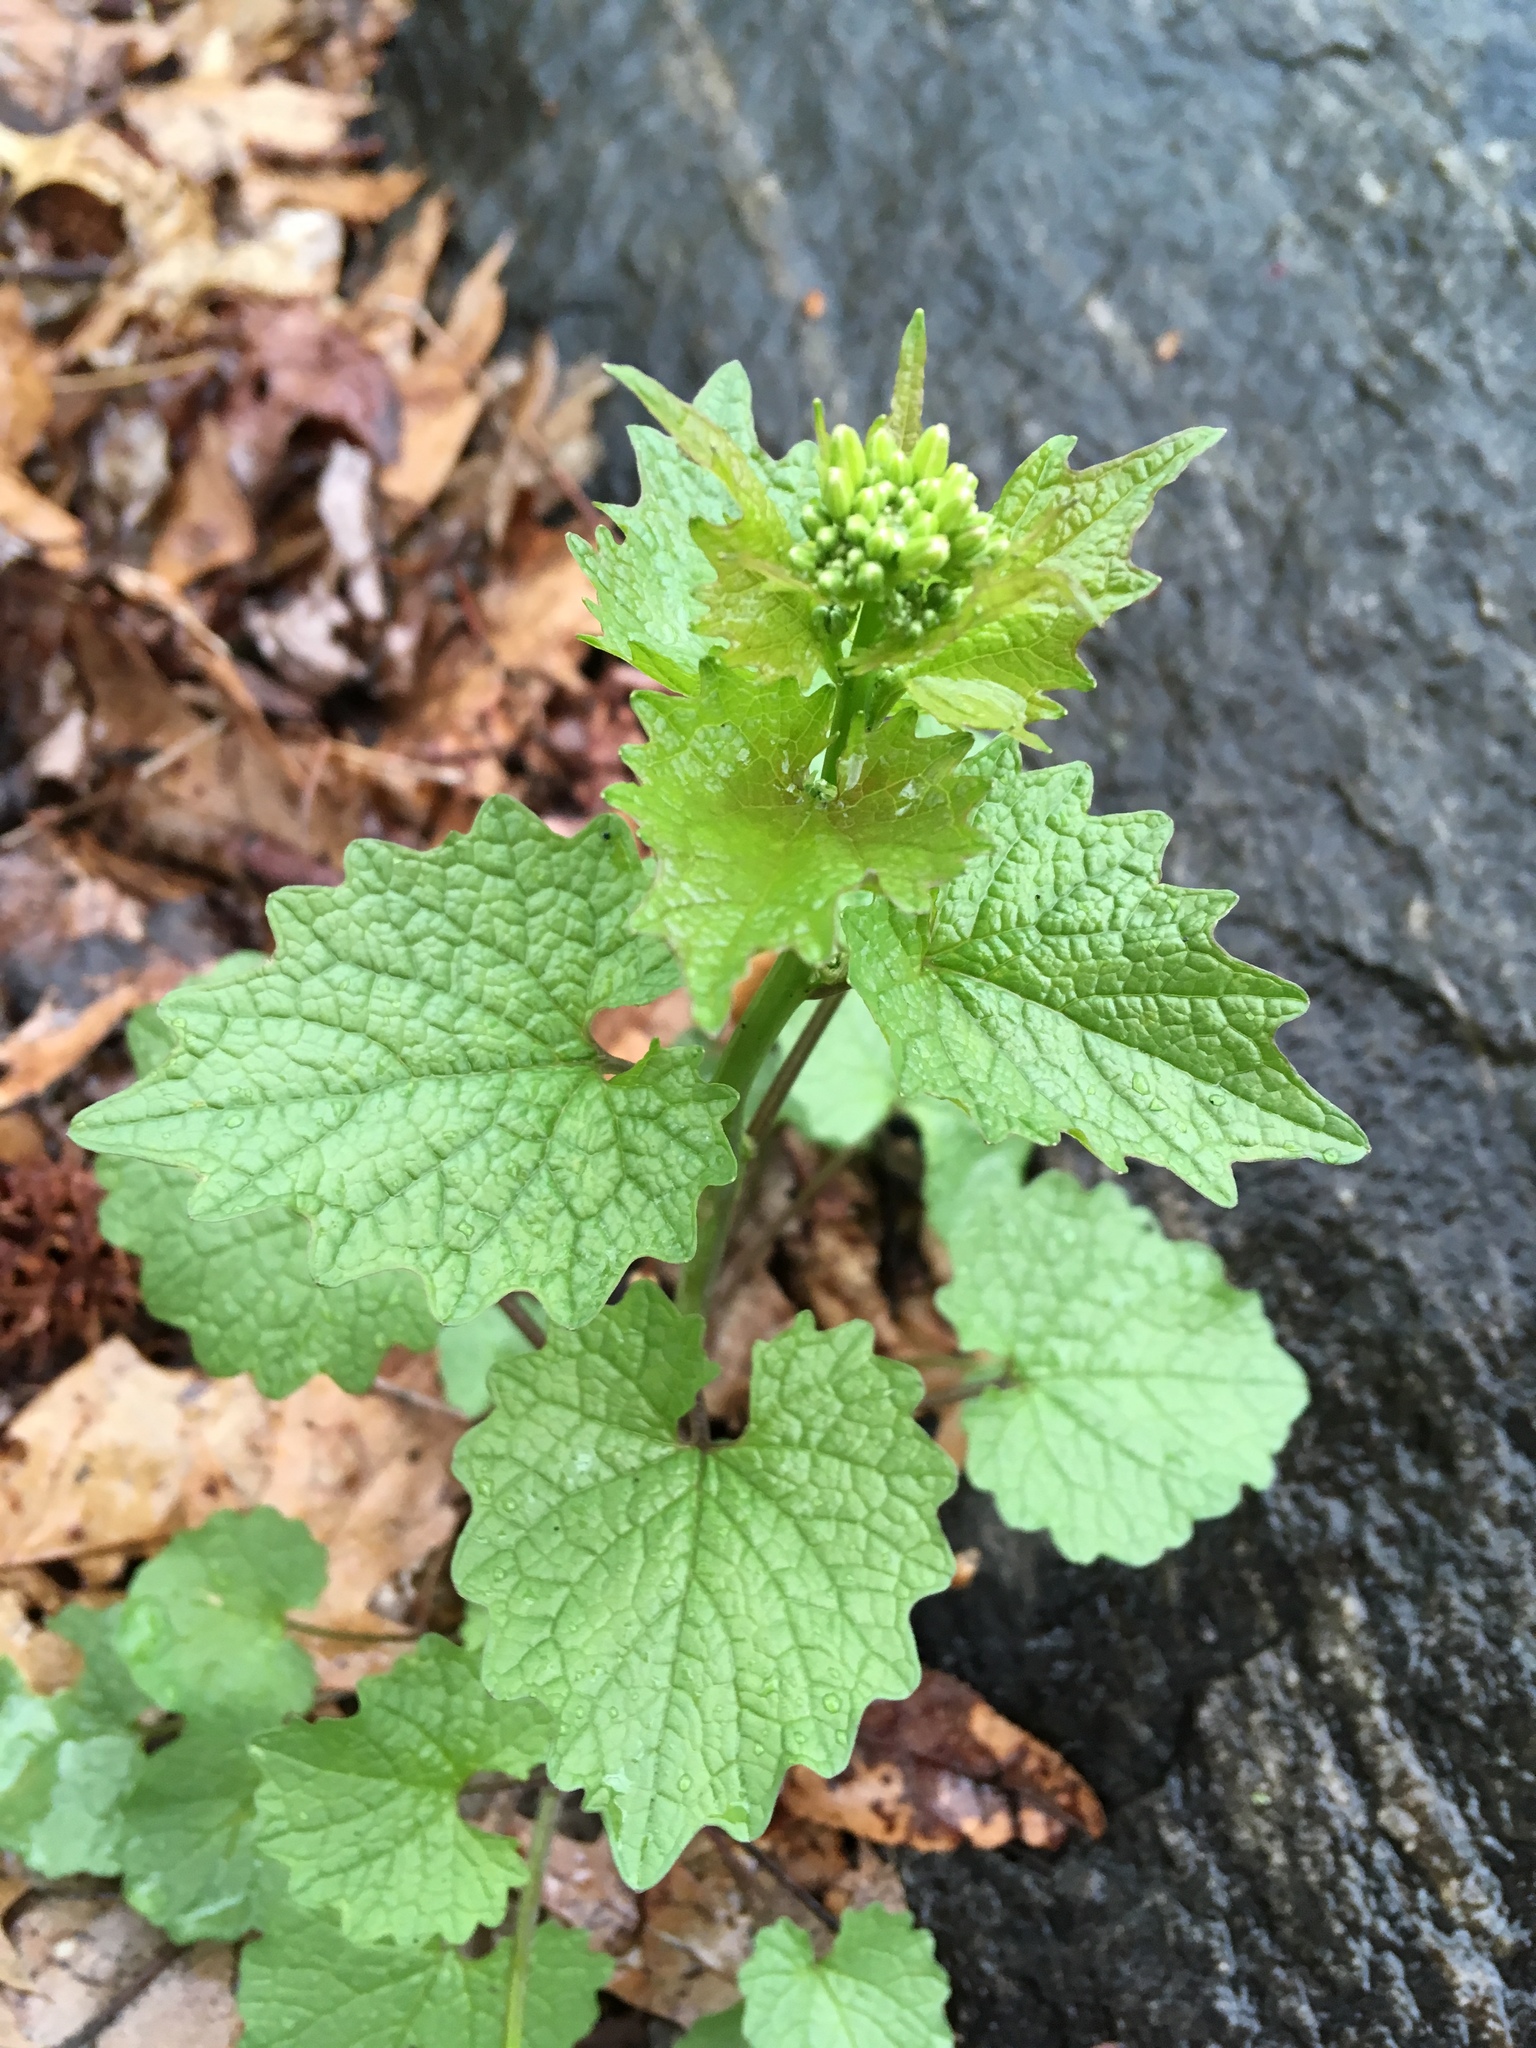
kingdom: Plantae
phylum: Tracheophyta
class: Magnoliopsida
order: Brassicales
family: Brassicaceae
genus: Alliaria
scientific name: Alliaria petiolata
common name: Garlic mustard
